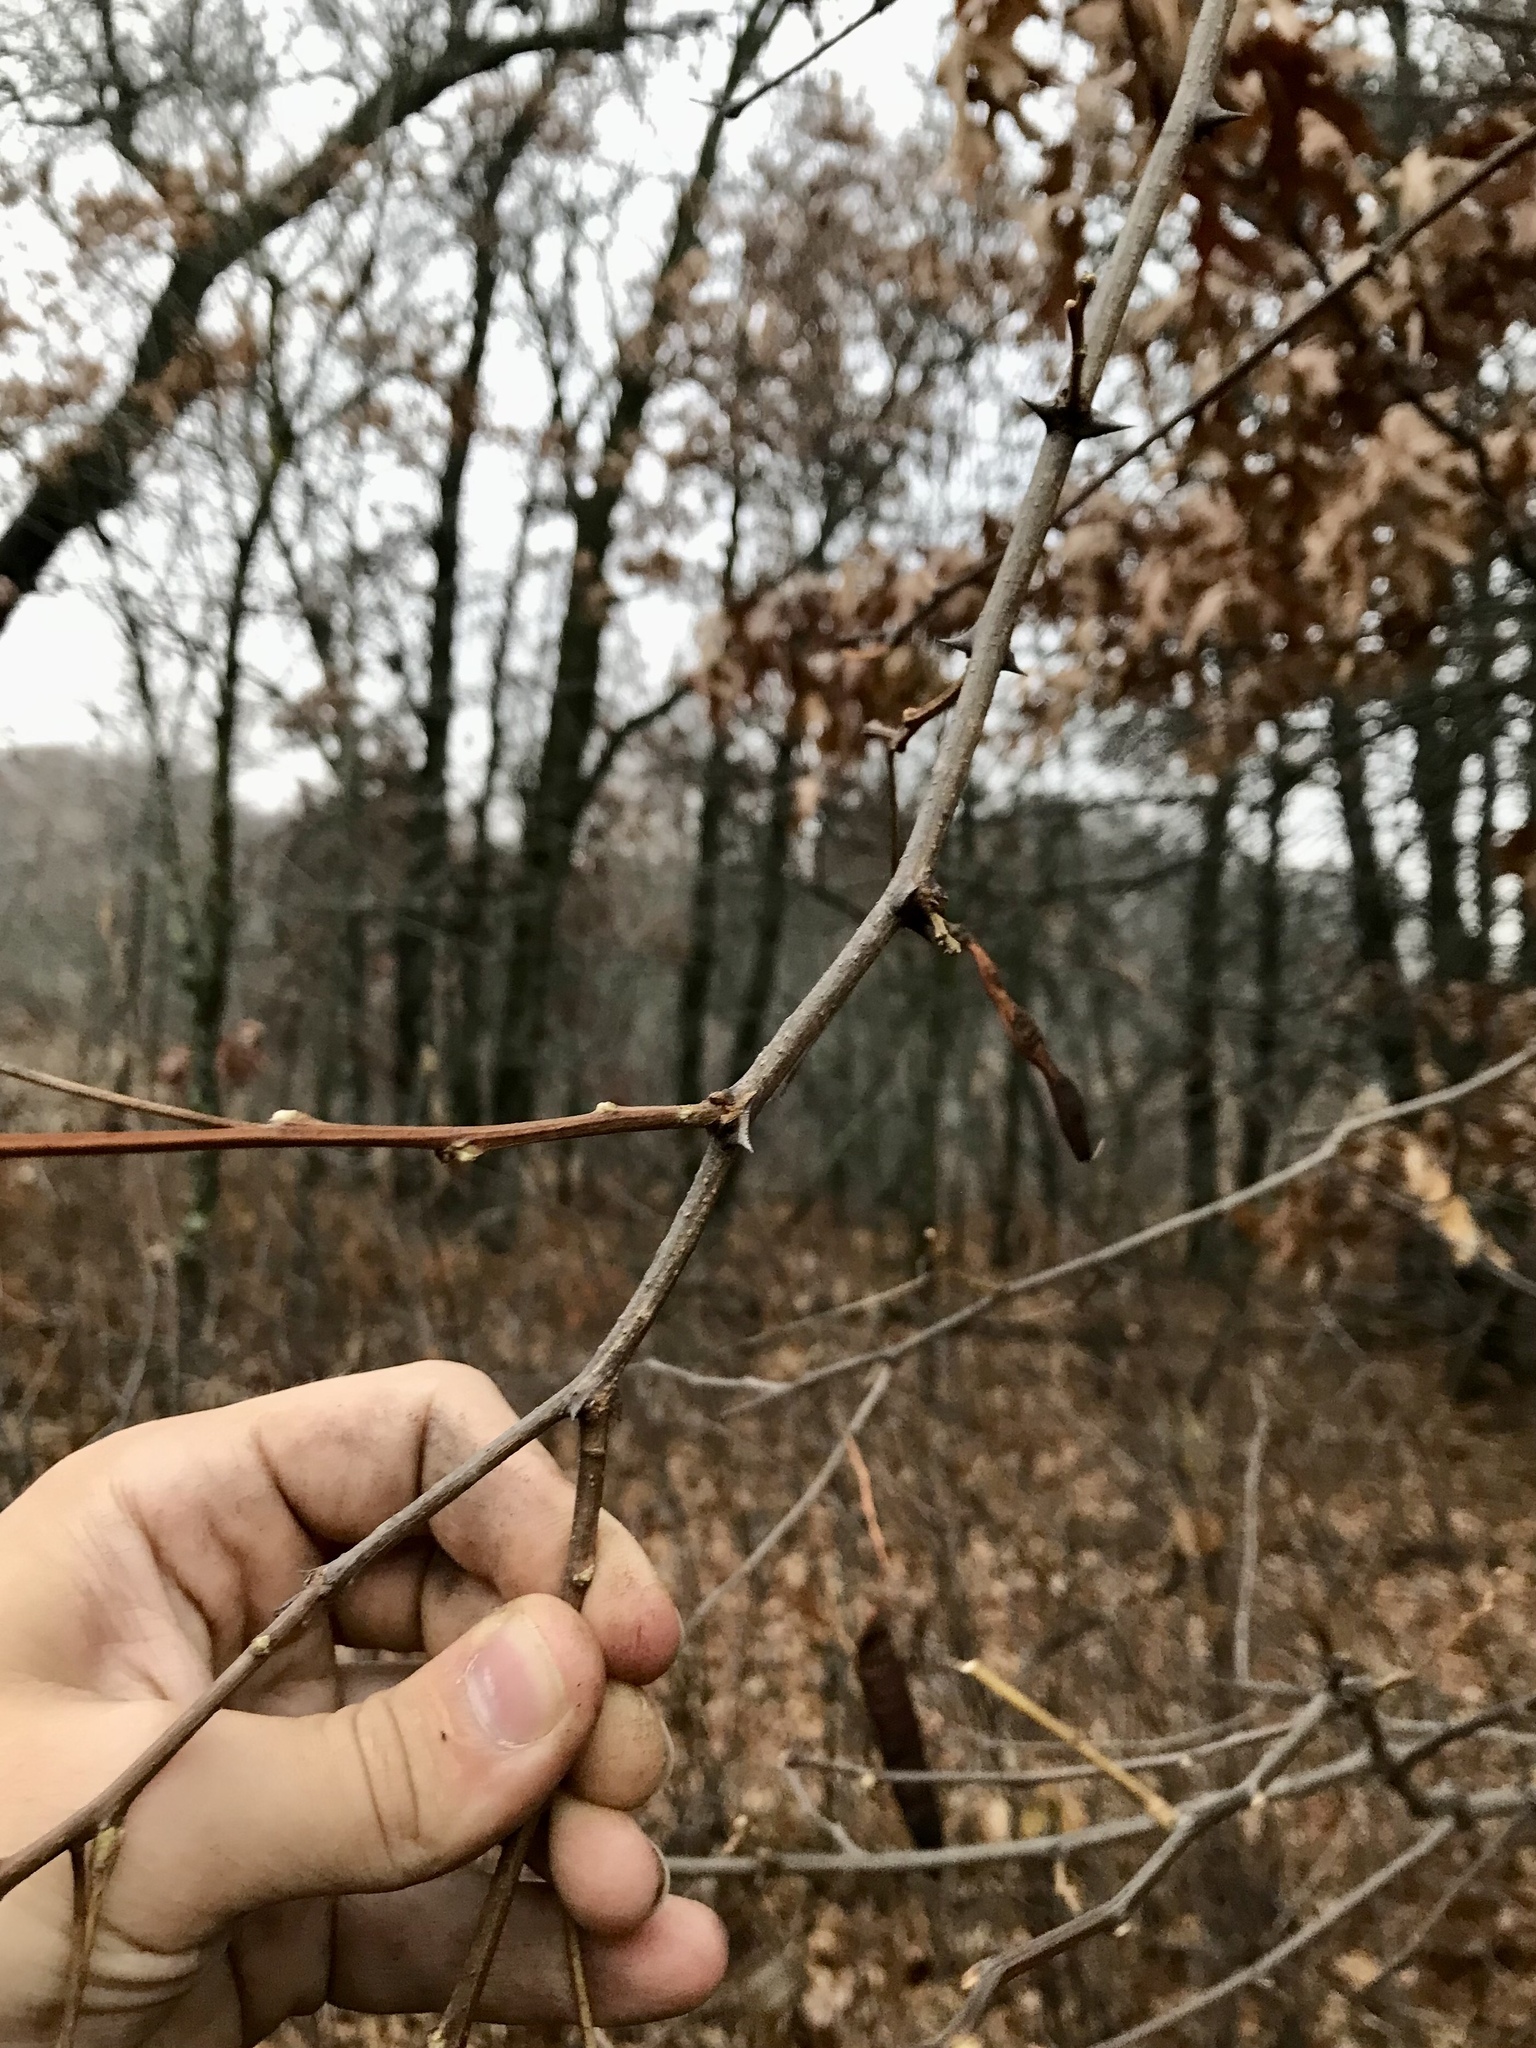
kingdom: Plantae
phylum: Tracheophyta
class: Magnoliopsida
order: Fabales
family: Fabaceae
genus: Robinia
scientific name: Robinia pseudoacacia
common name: Black locust
